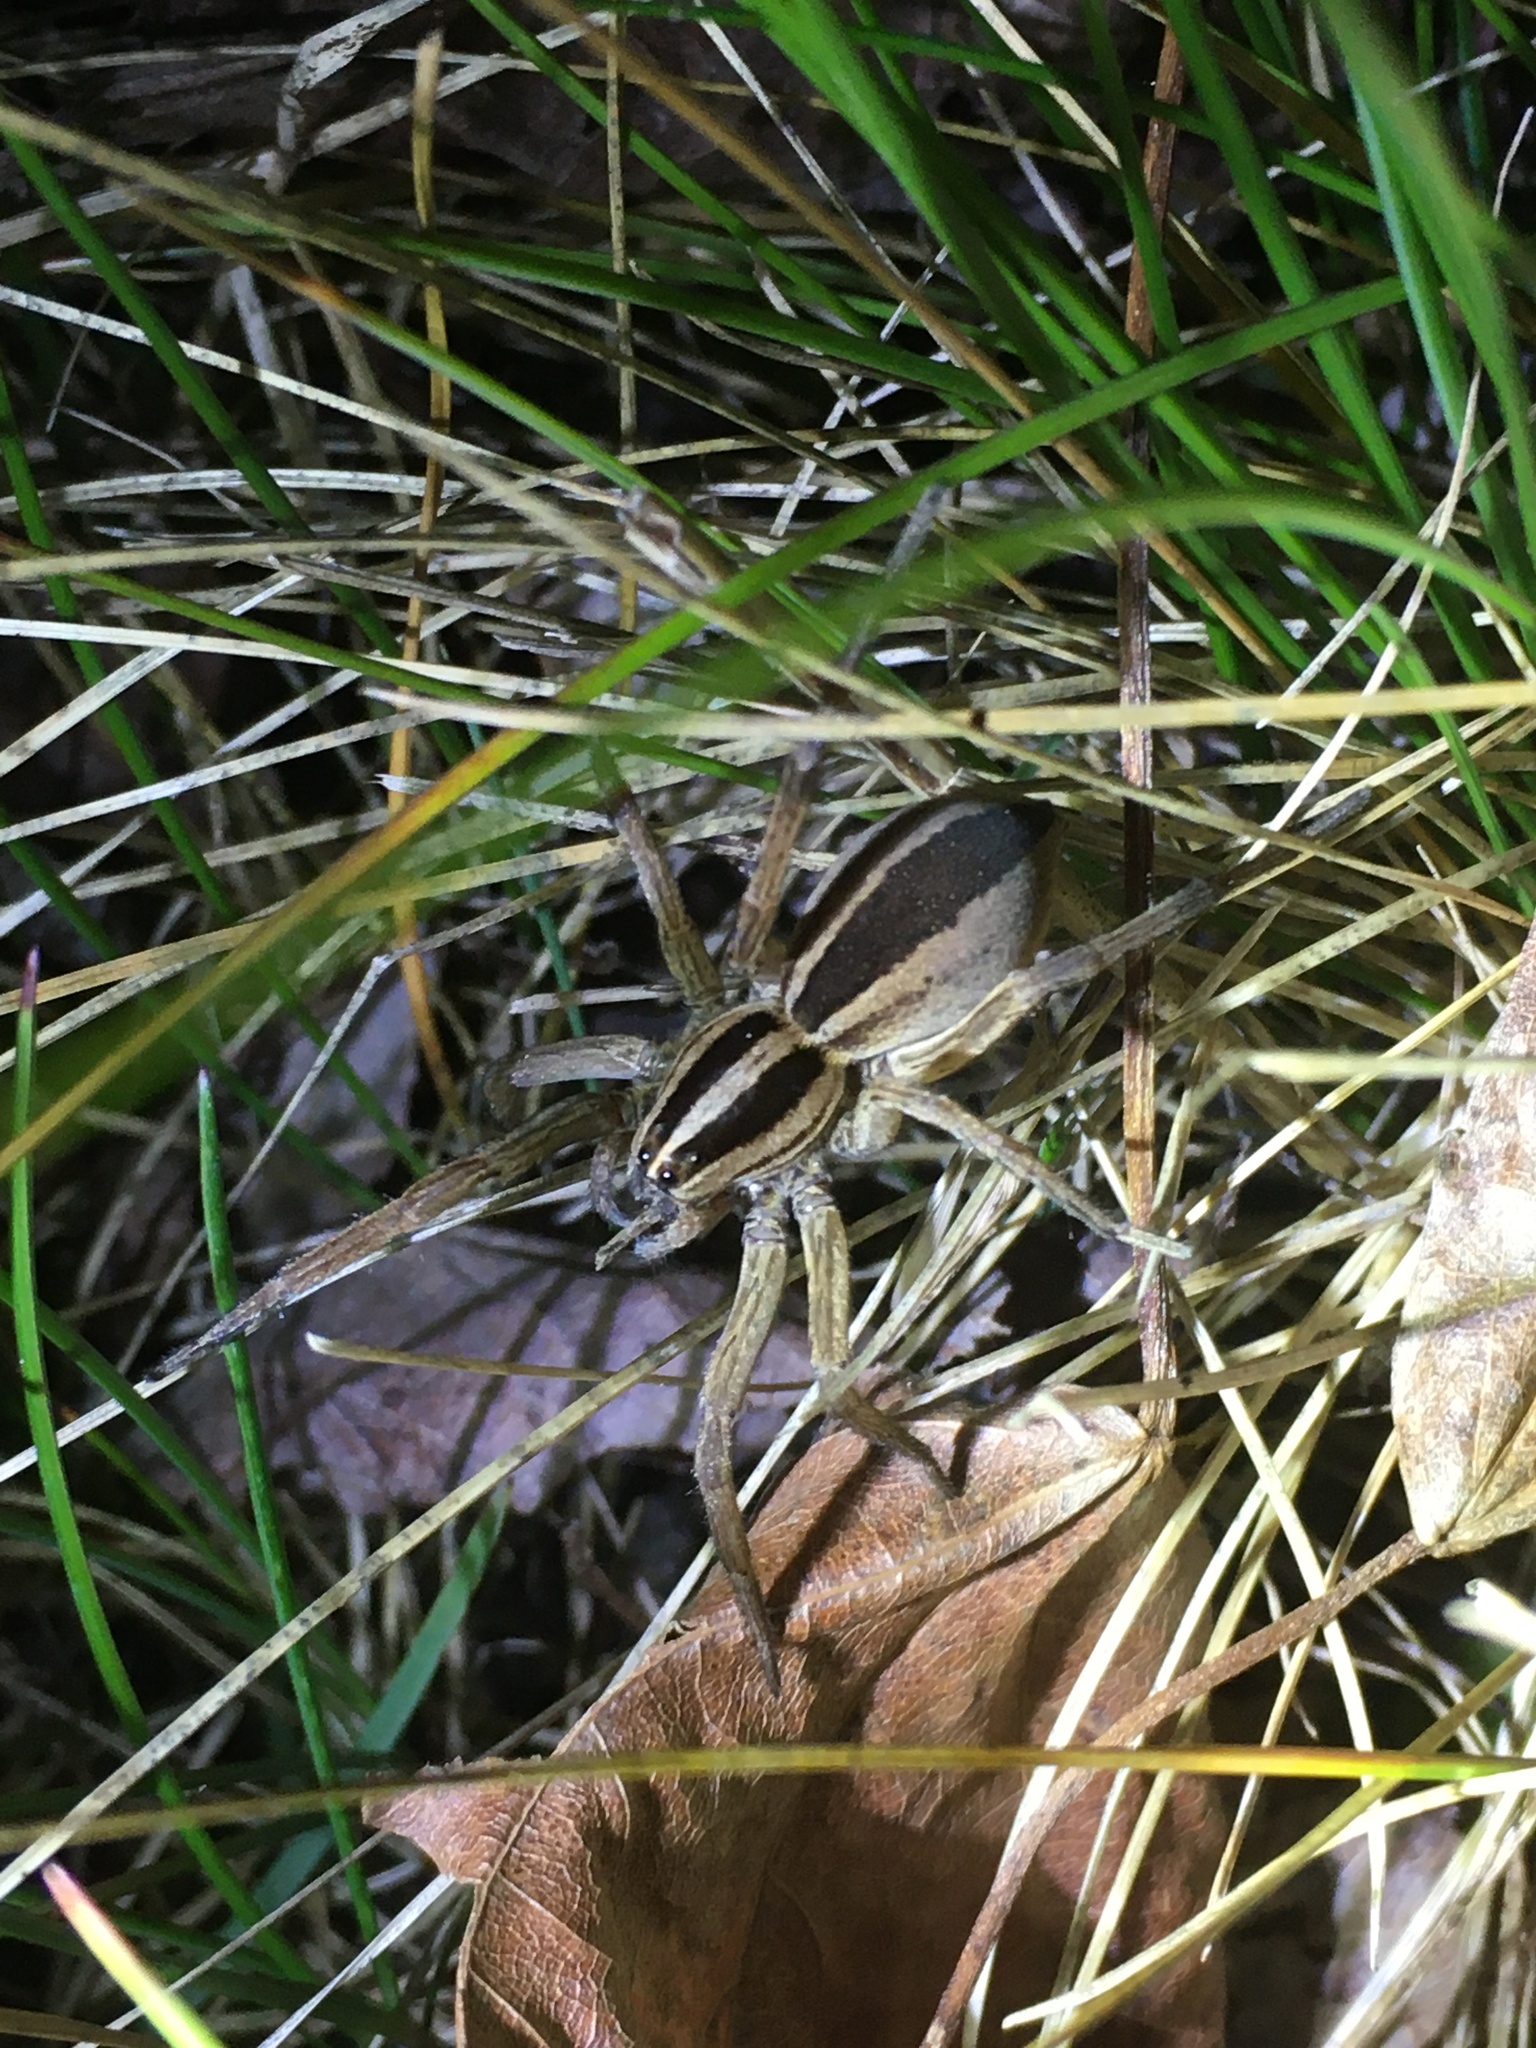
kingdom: Animalia
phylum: Arthropoda
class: Arachnida
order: Araneae
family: Lycosidae
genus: Rabidosa
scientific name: Rabidosa punctulata
